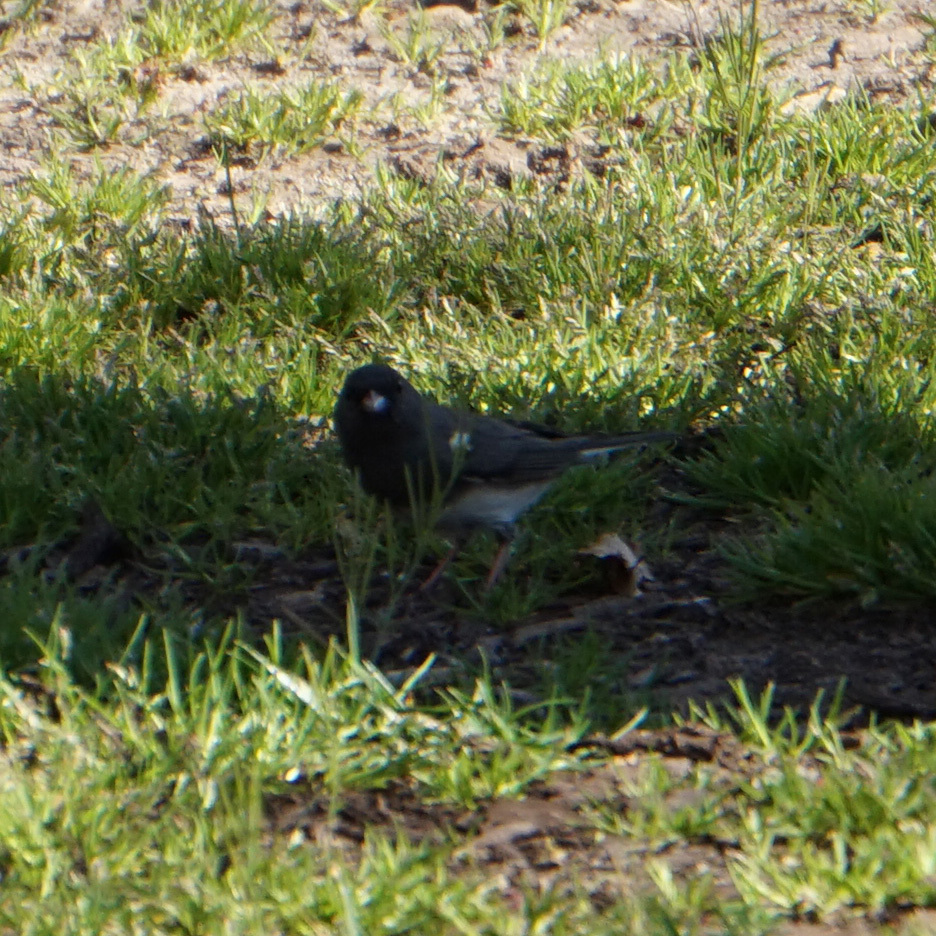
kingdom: Animalia
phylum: Chordata
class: Aves
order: Passeriformes
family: Passerellidae
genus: Junco
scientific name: Junco hyemalis
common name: Dark-eyed junco
